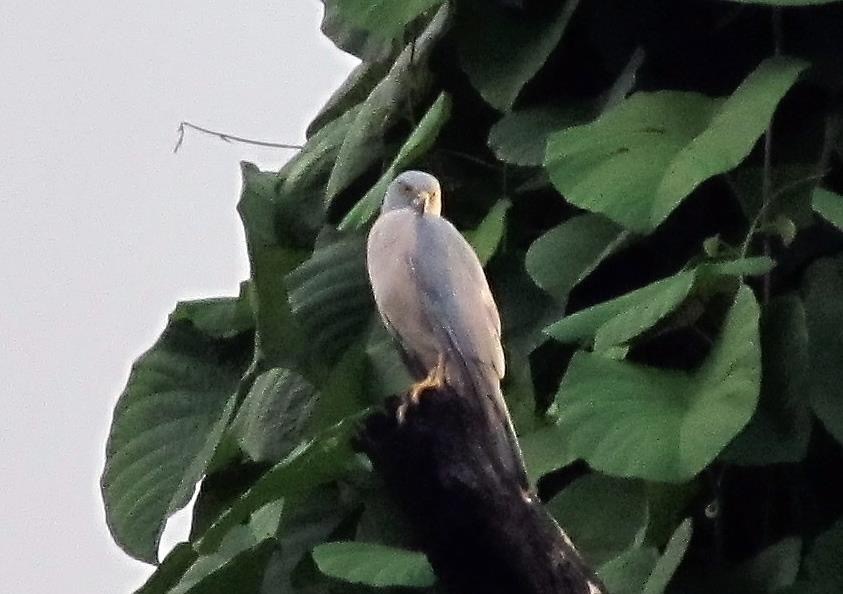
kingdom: Animalia
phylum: Chordata
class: Aves
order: Accipitriformes
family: Accipitridae
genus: Accipiter
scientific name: Accipiter rufitorques
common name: Fiji goshawk
